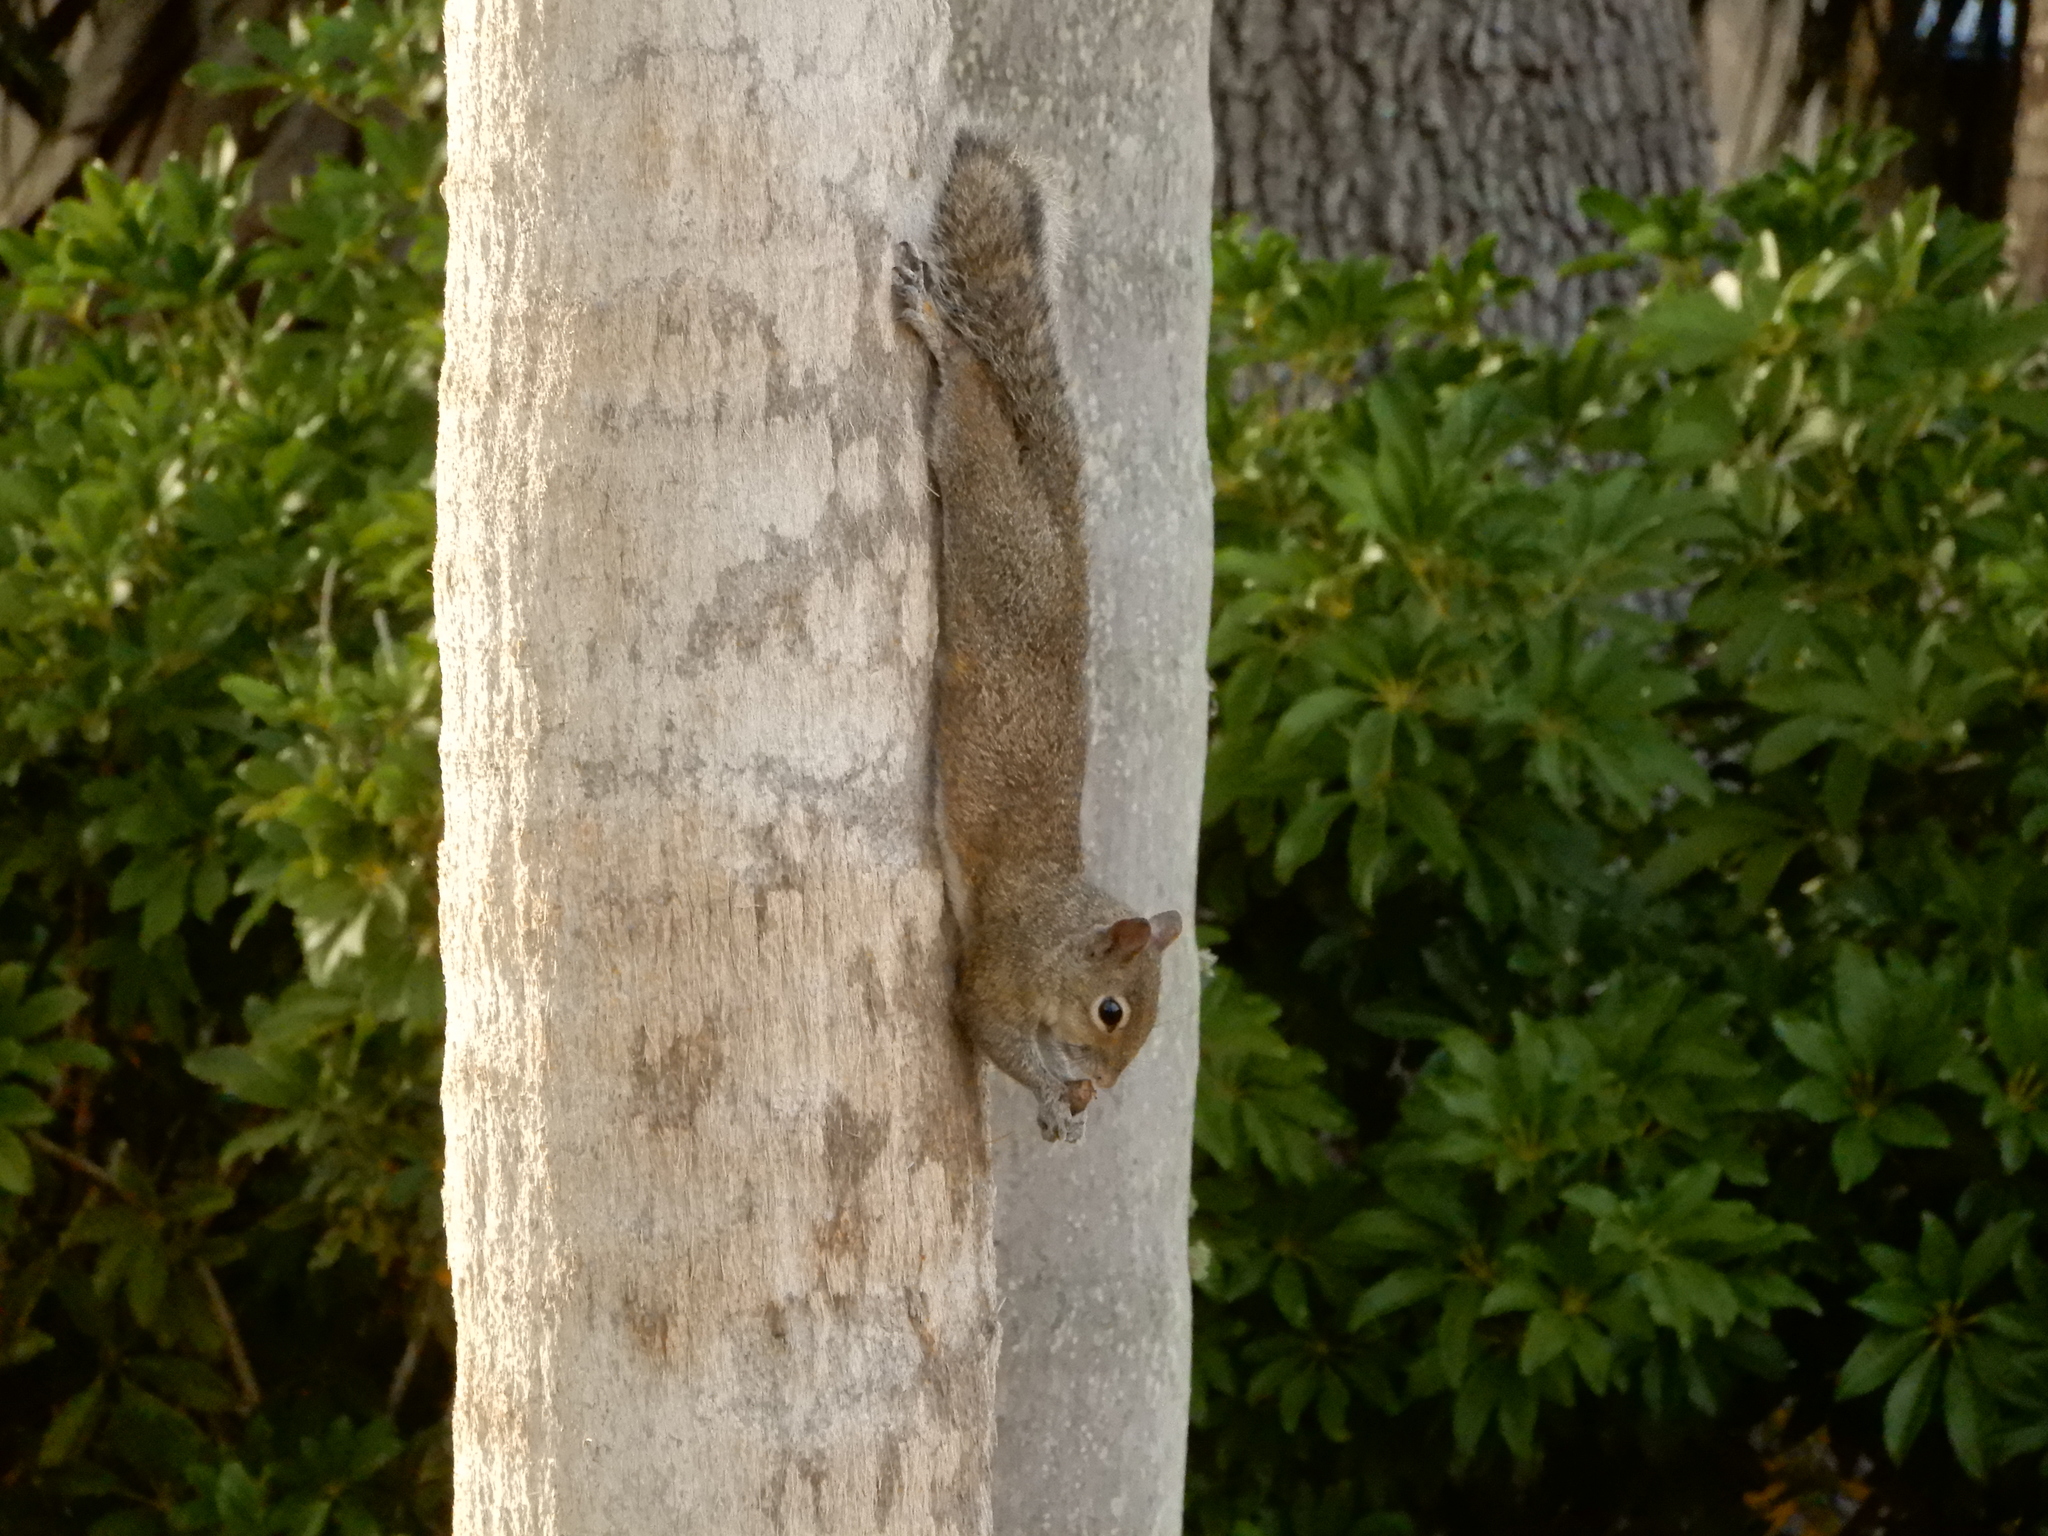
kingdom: Animalia
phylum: Chordata
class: Mammalia
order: Rodentia
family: Sciuridae
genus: Sciurus
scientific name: Sciurus carolinensis
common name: Eastern gray squirrel
